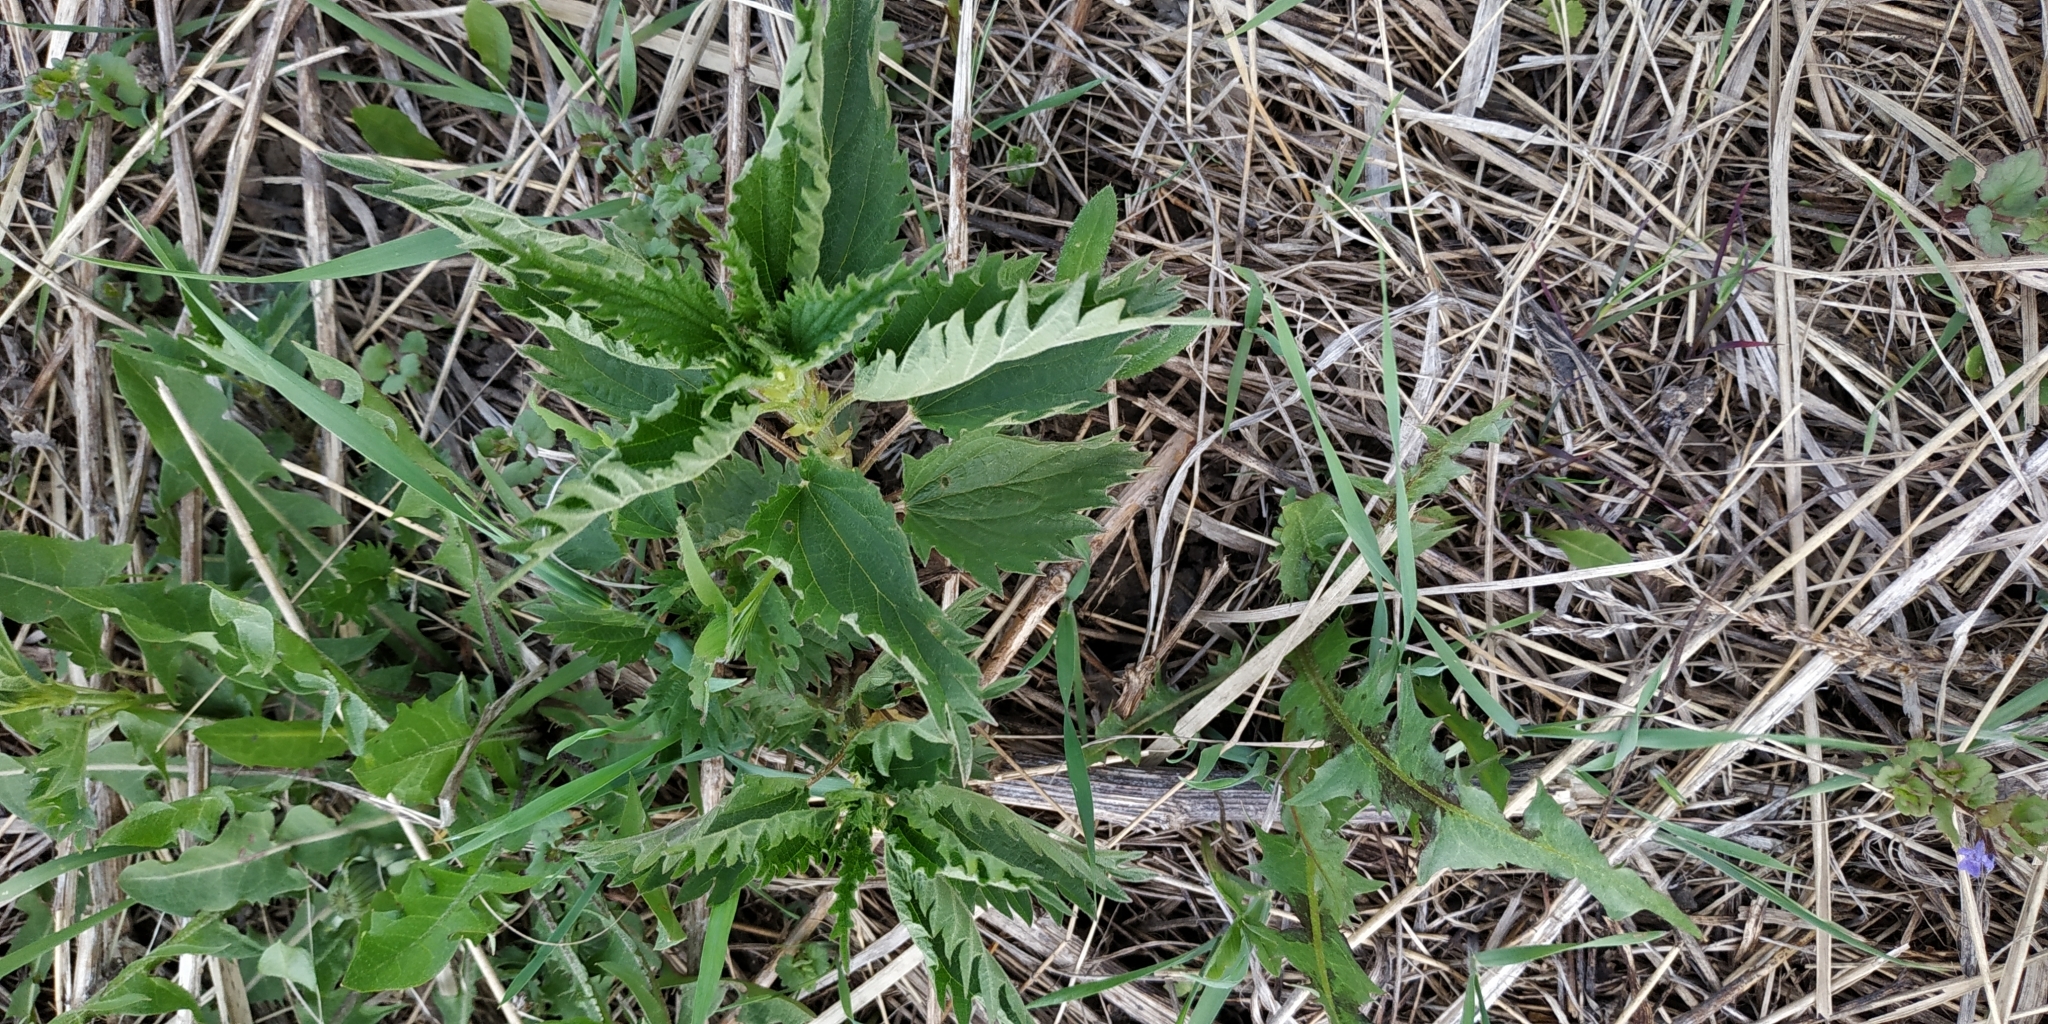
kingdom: Plantae
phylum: Tracheophyta
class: Magnoliopsida
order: Rosales
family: Urticaceae
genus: Urtica
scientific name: Urtica dioica
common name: Common nettle
